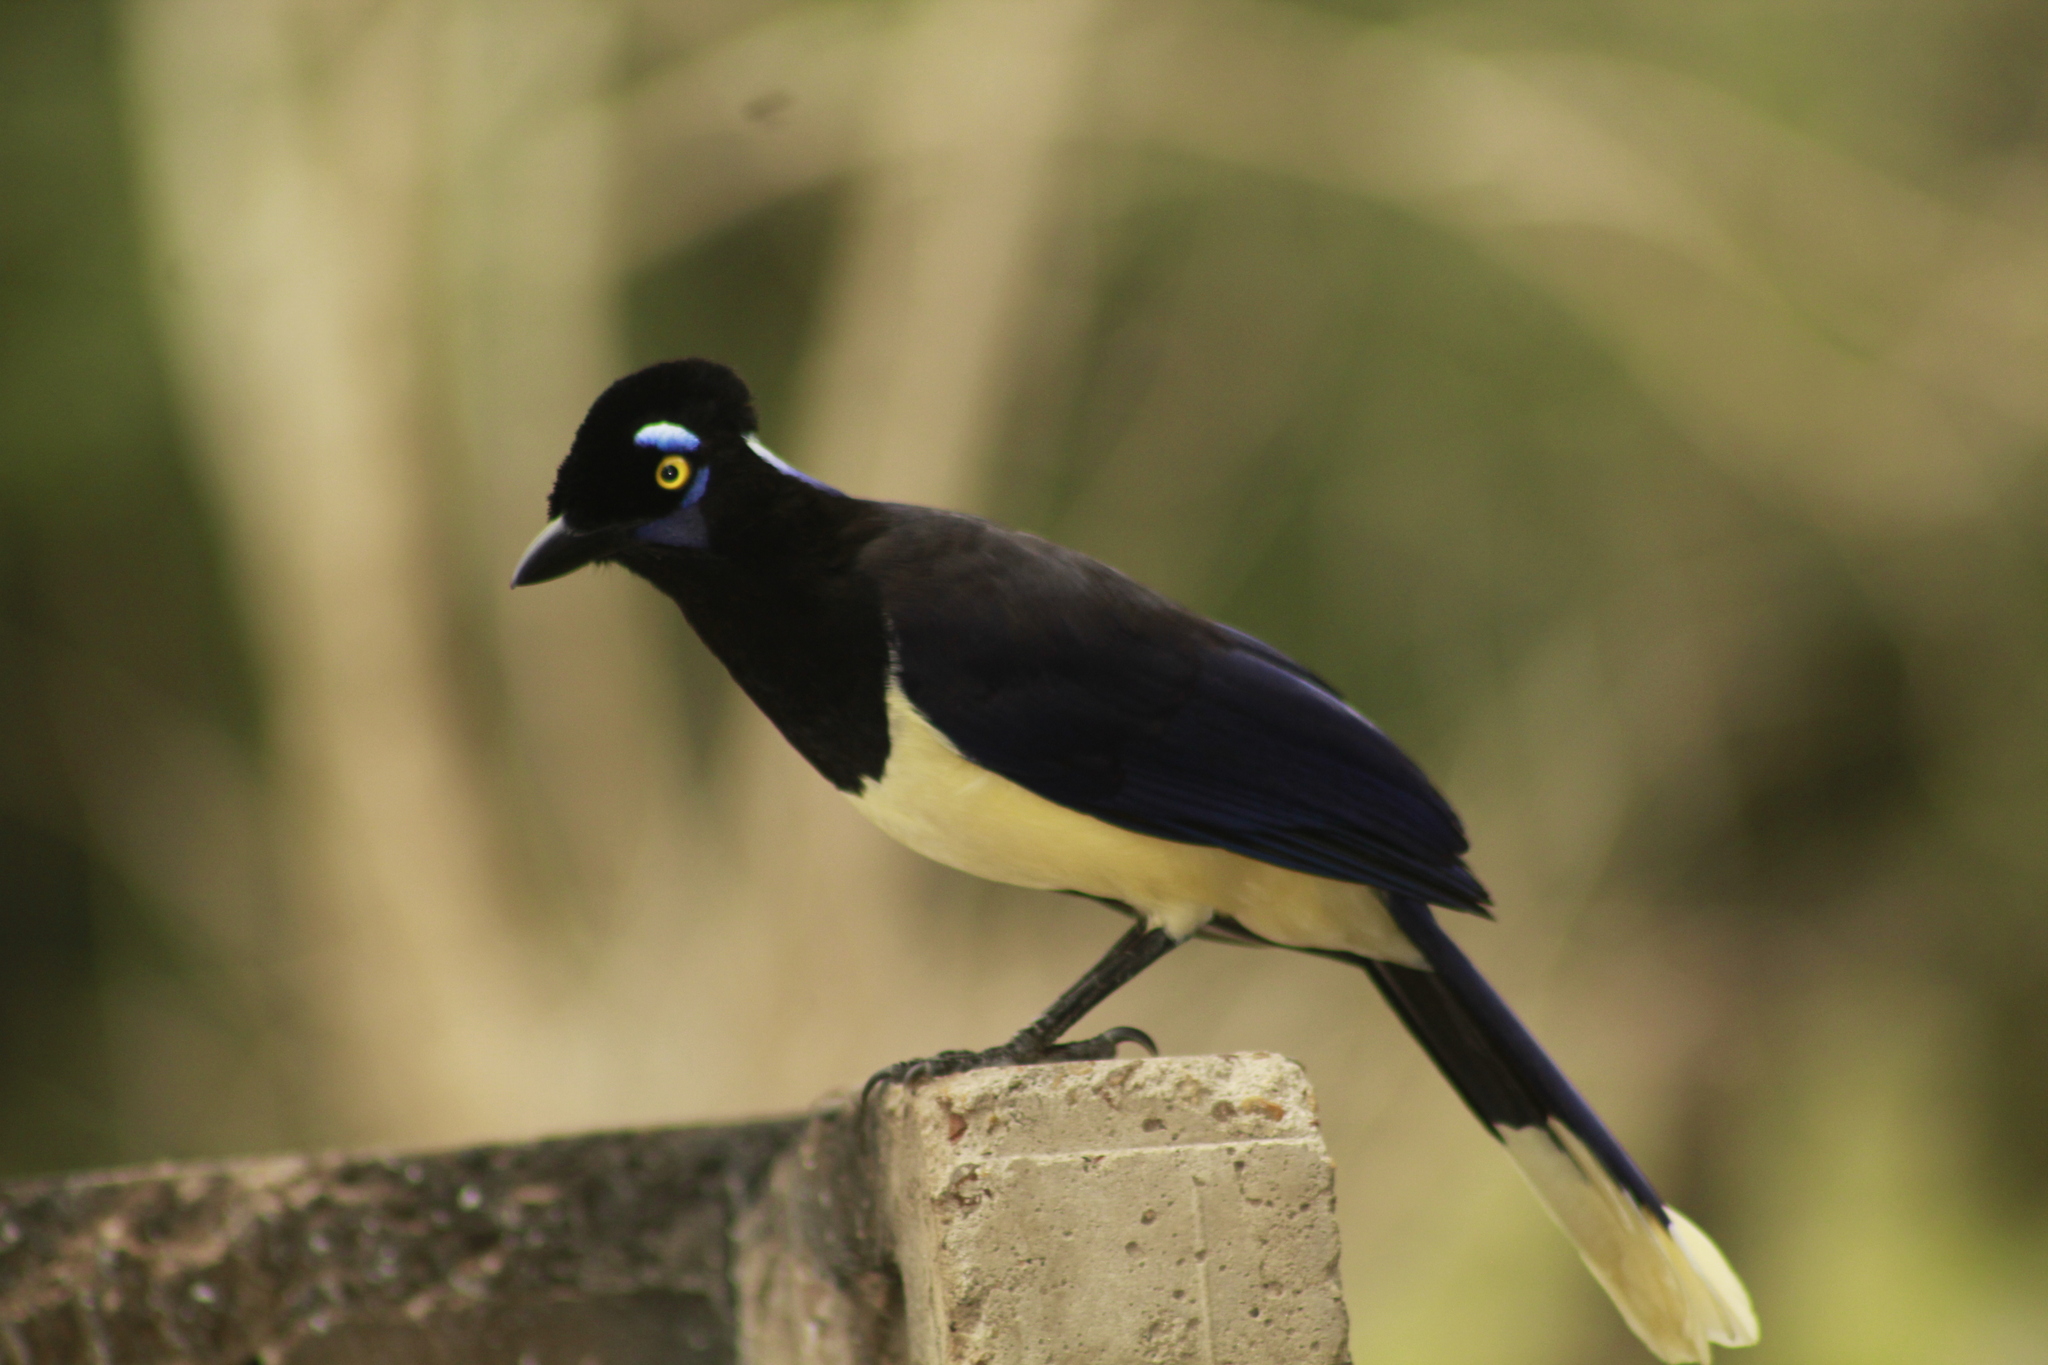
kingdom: Animalia
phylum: Chordata
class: Aves
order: Passeriformes
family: Corvidae
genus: Cyanocorax
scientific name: Cyanocorax chrysops
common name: Plush-crested jay
